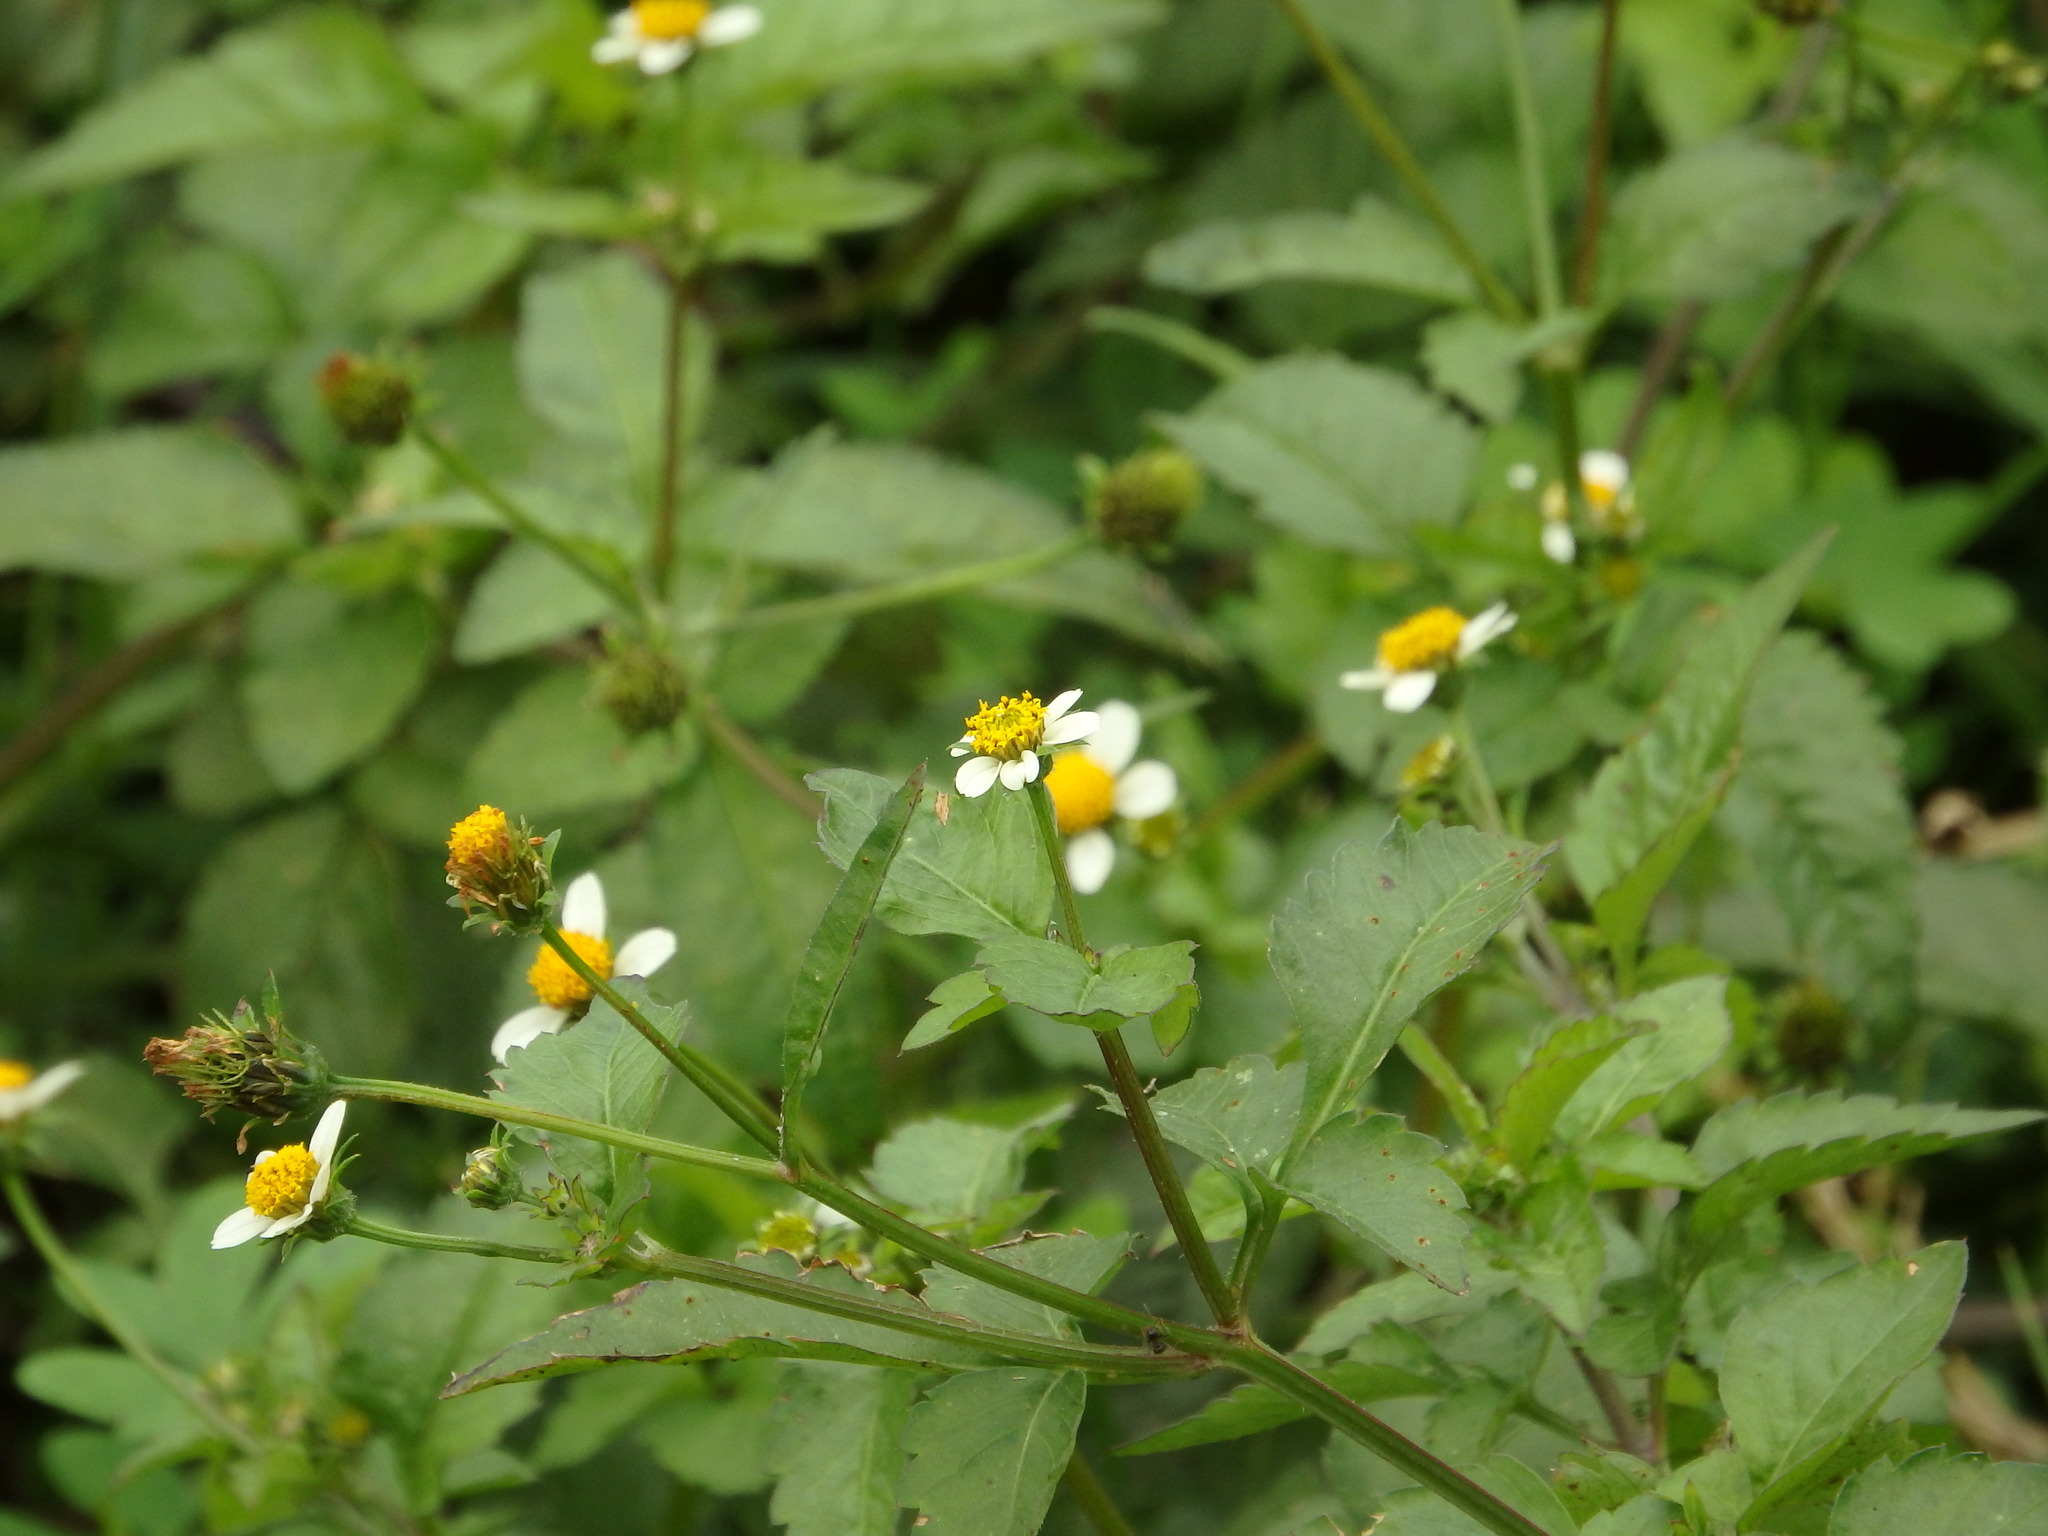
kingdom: Plantae
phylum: Tracheophyta
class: Magnoliopsida
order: Asterales
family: Asteraceae
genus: Bidens
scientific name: Bidens pilosa
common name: Black-jack
